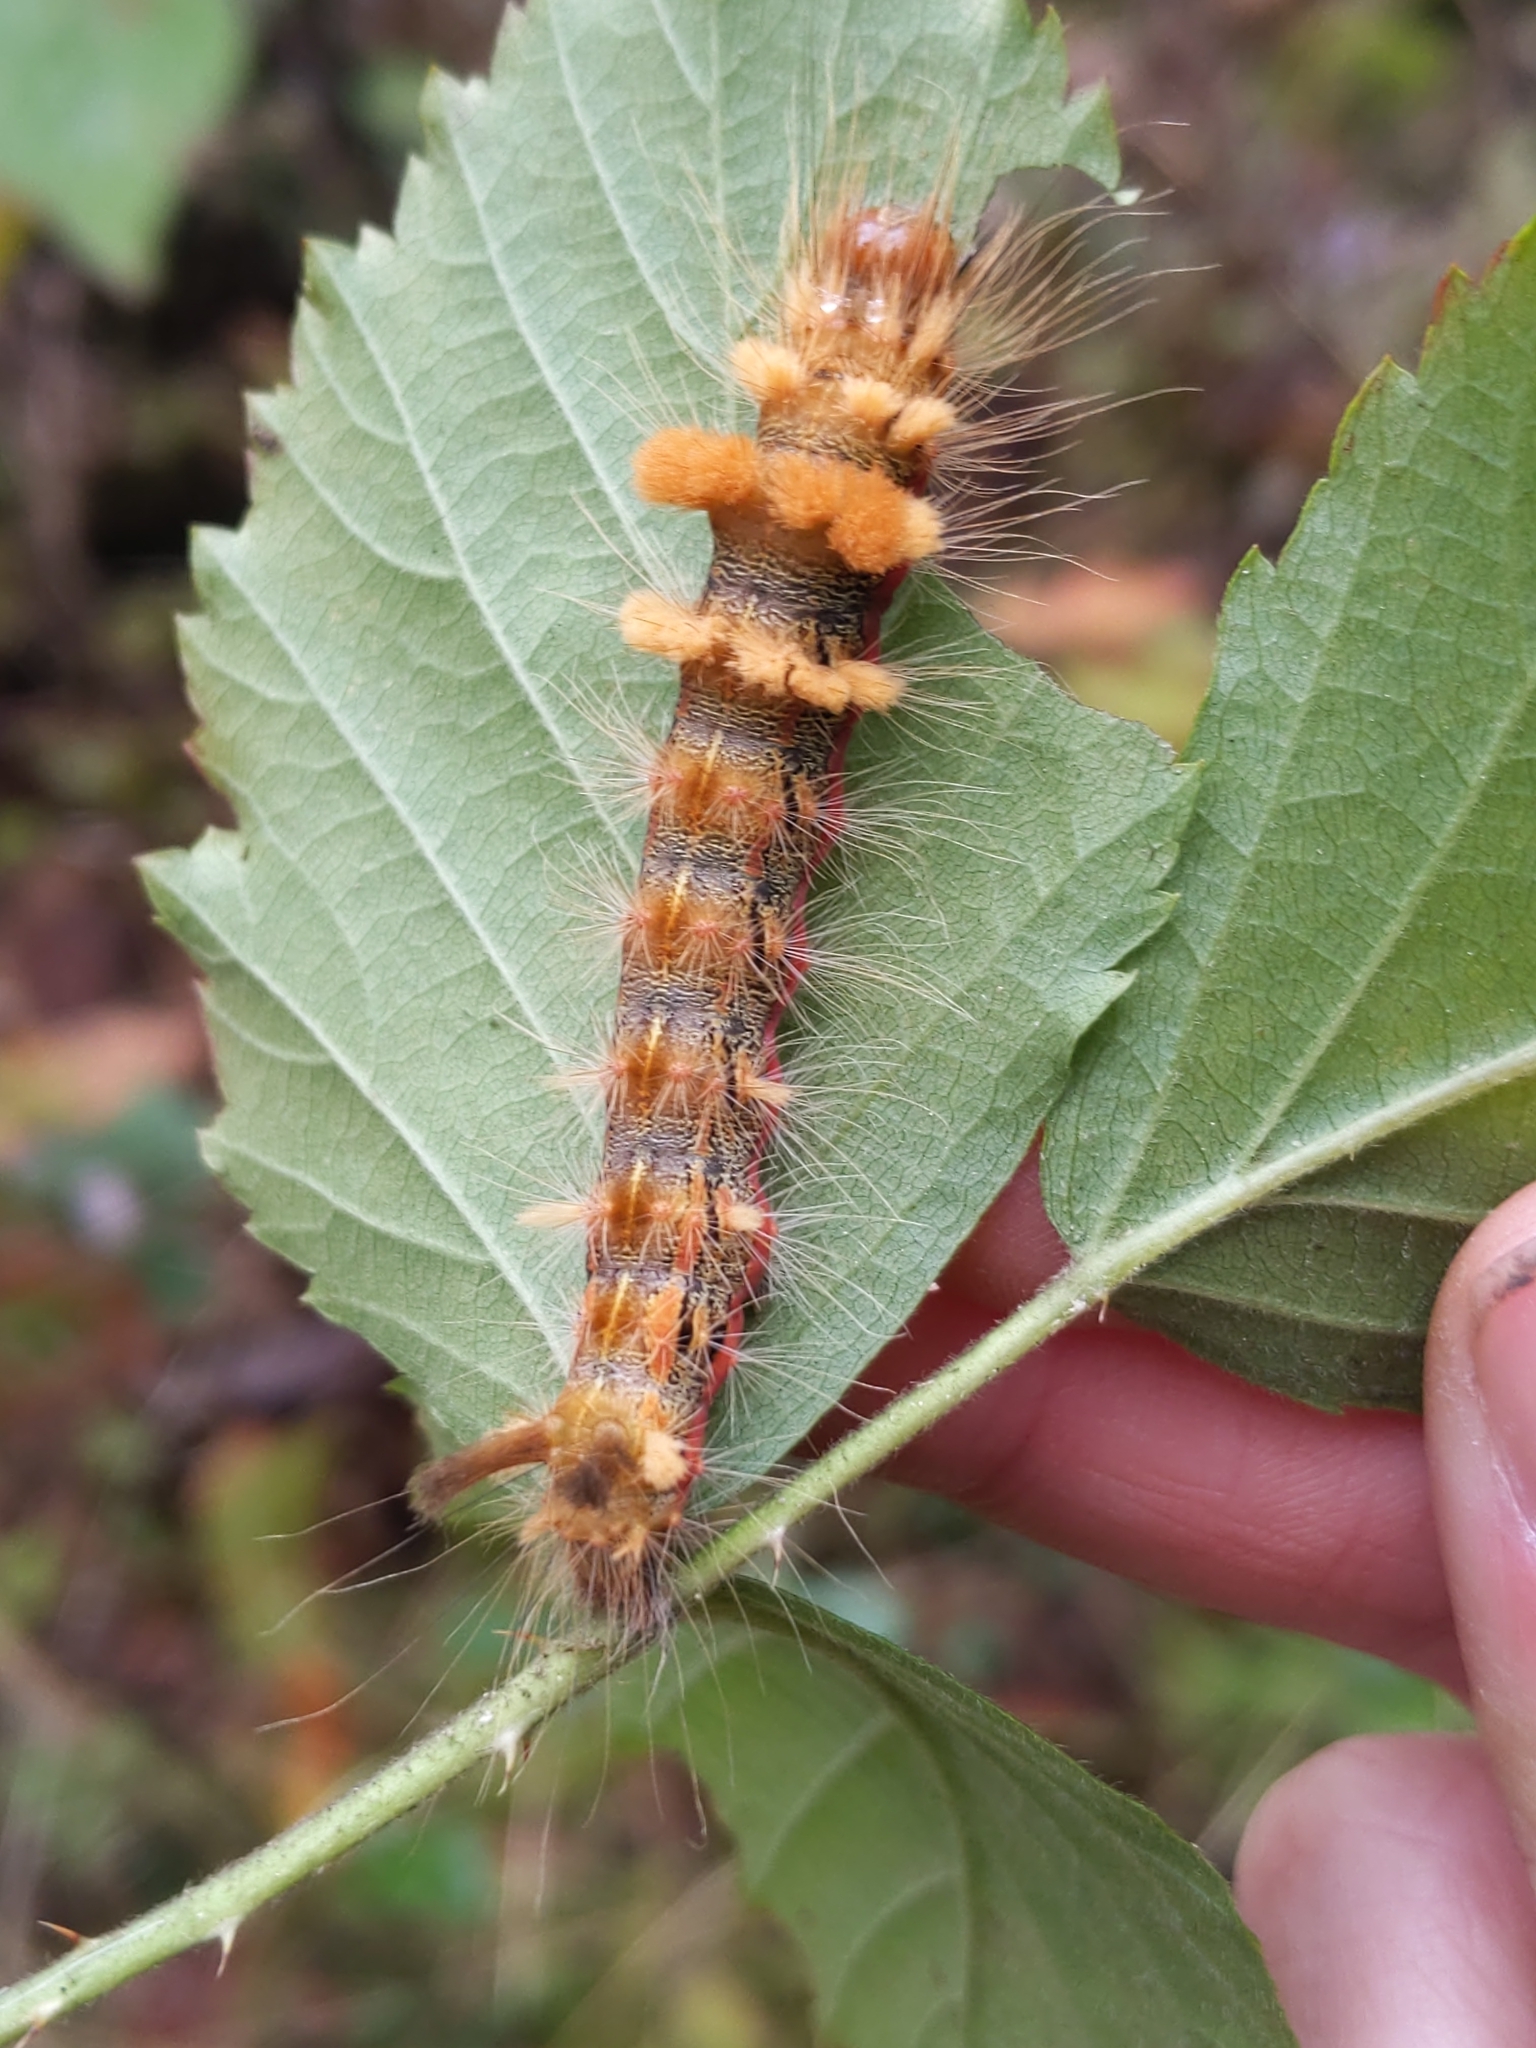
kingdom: Animalia
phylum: Arthropoda
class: Insecta
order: Lepidoptera
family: Noctuidae
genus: Acronicta
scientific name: Acronicta impleta
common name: Powdered dagger
